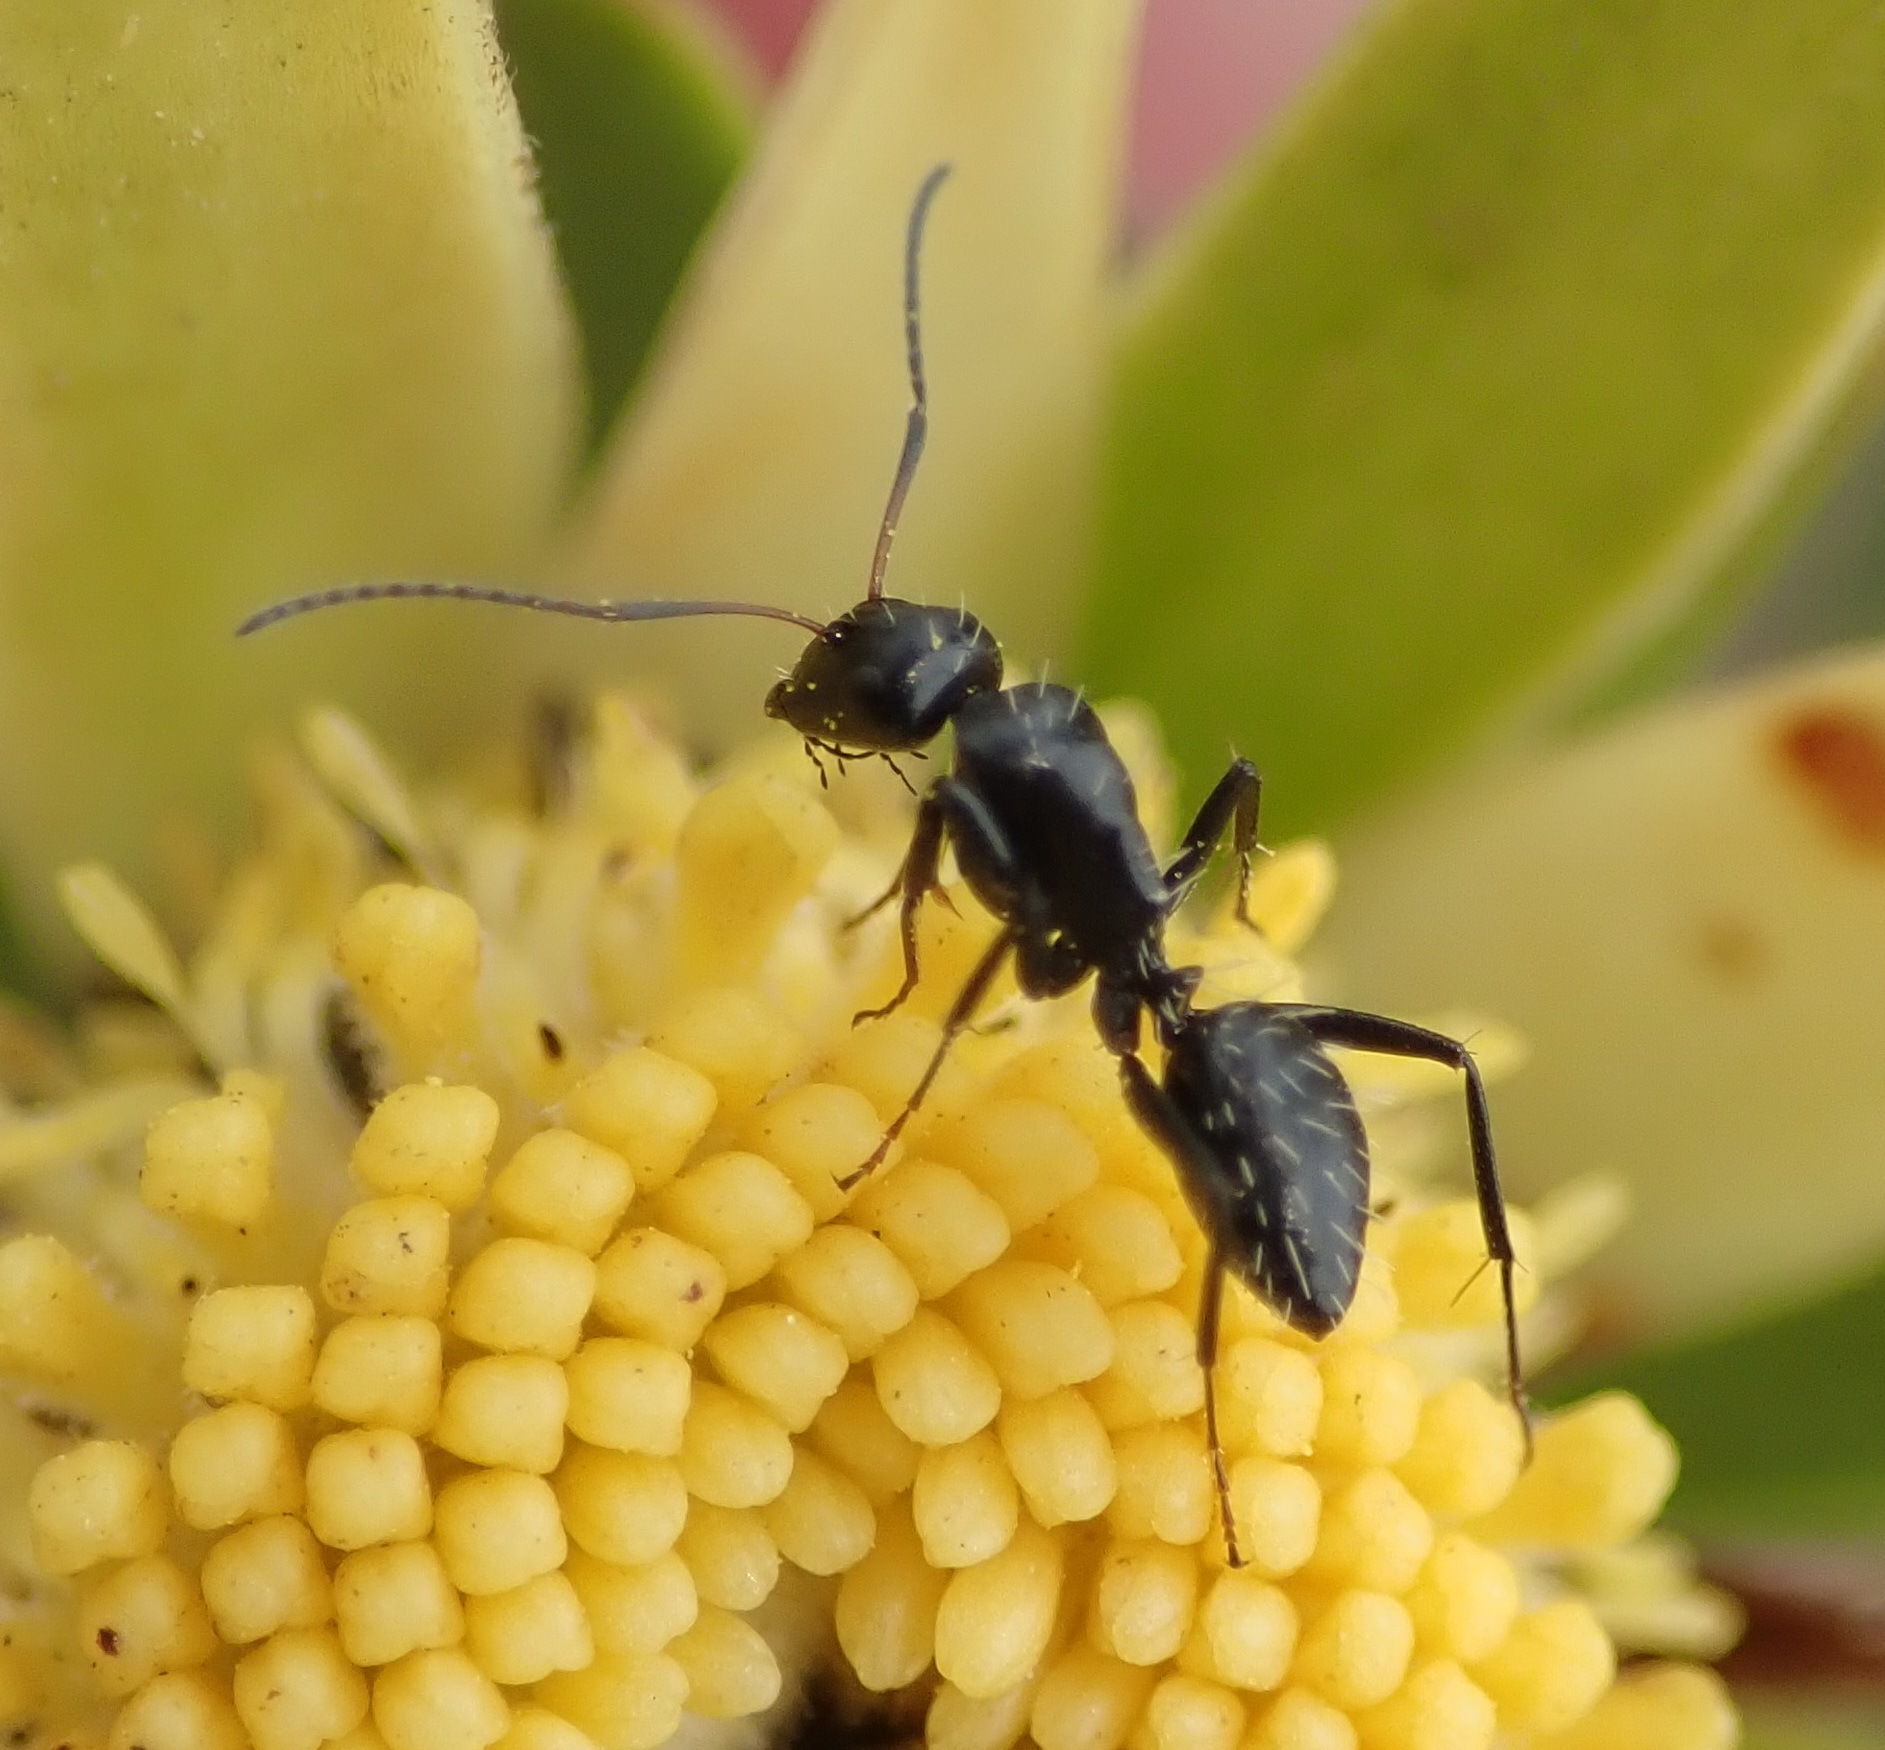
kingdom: Animalia
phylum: Arthropoda
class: Insecta
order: Hymenoptera
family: Formicidae
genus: Camponotus
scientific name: Camponotus niveosetosus
